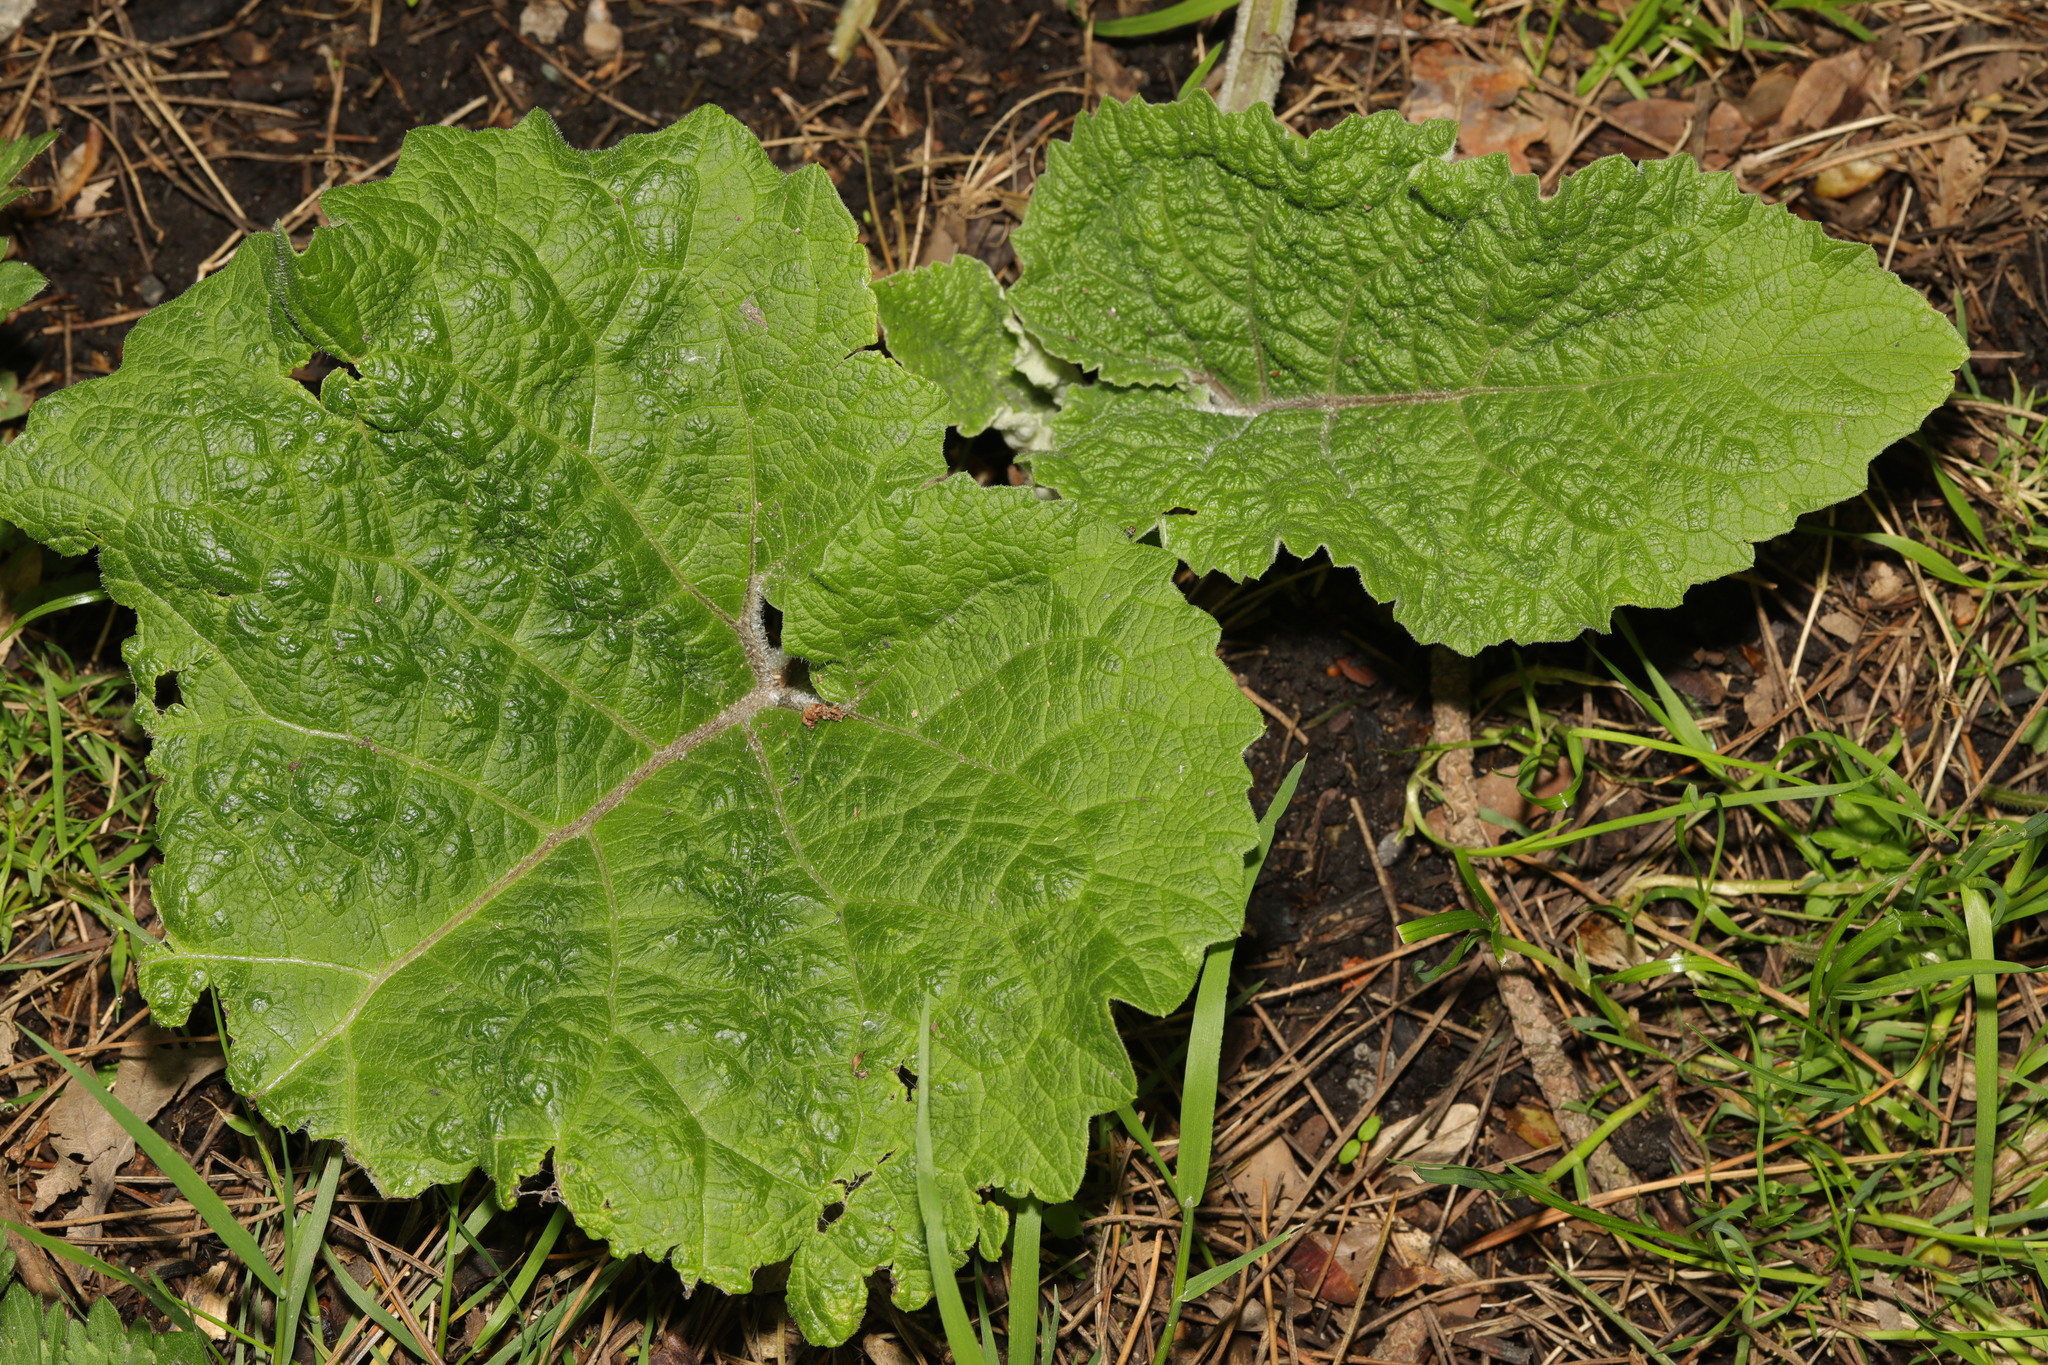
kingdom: Plantae
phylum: Tracheophyta
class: Magnoliopsida
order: Asterales
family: Asteraceae
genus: Arctium
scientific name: Arctium minus
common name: Lesser burdock
